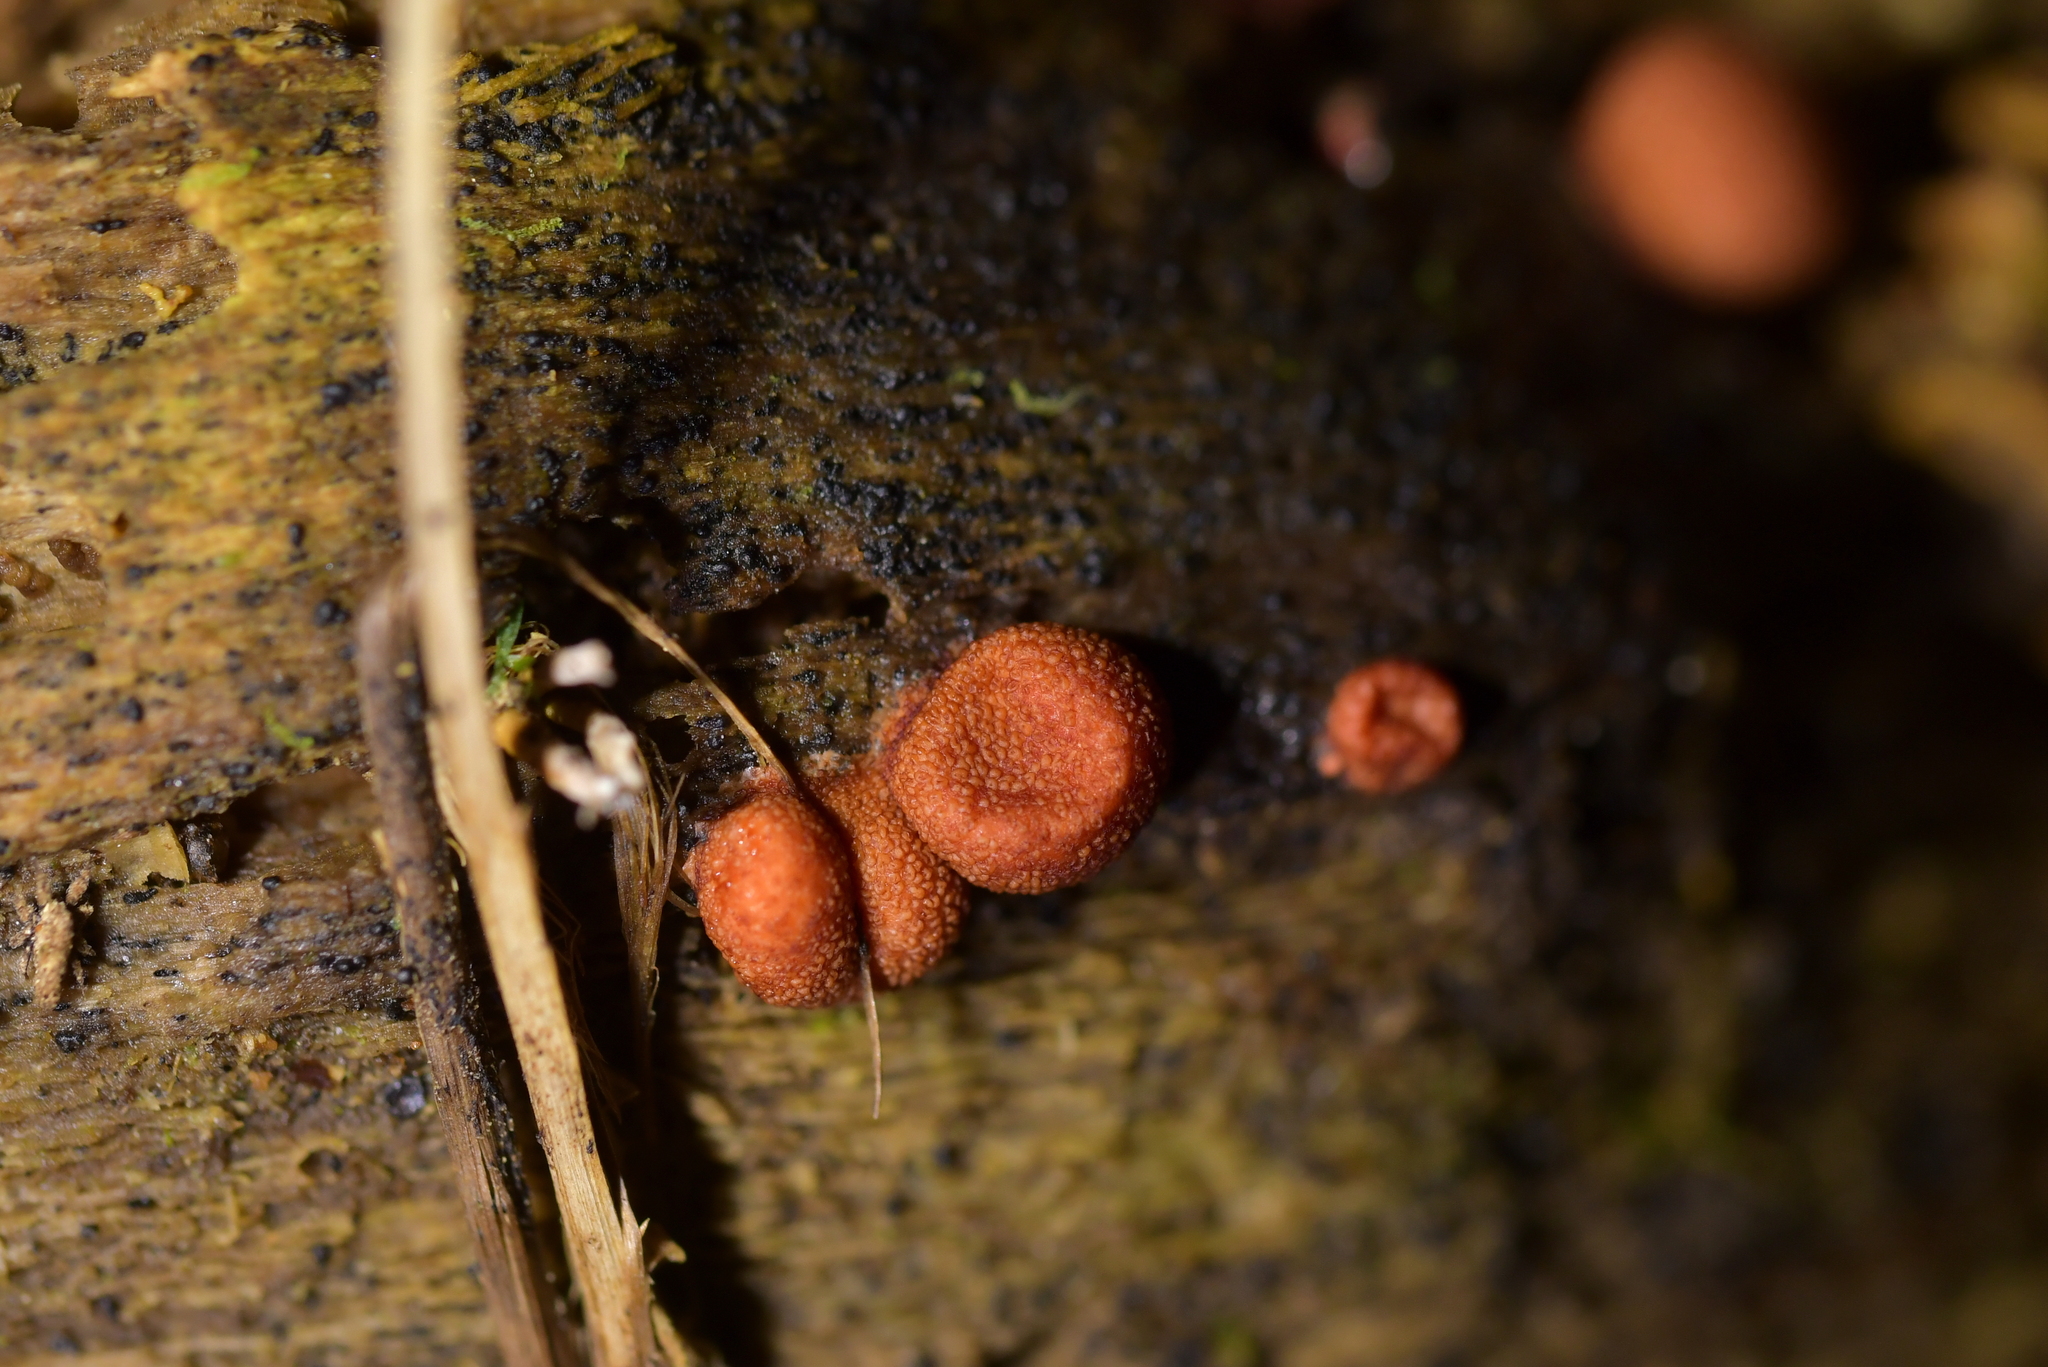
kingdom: Protozoa
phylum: Mycetozoa
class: Myxomycetes
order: Cribrariales
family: Tubiferaceae
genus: Lycogala
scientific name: Lycogala epidendrum
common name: Wolf's milk
